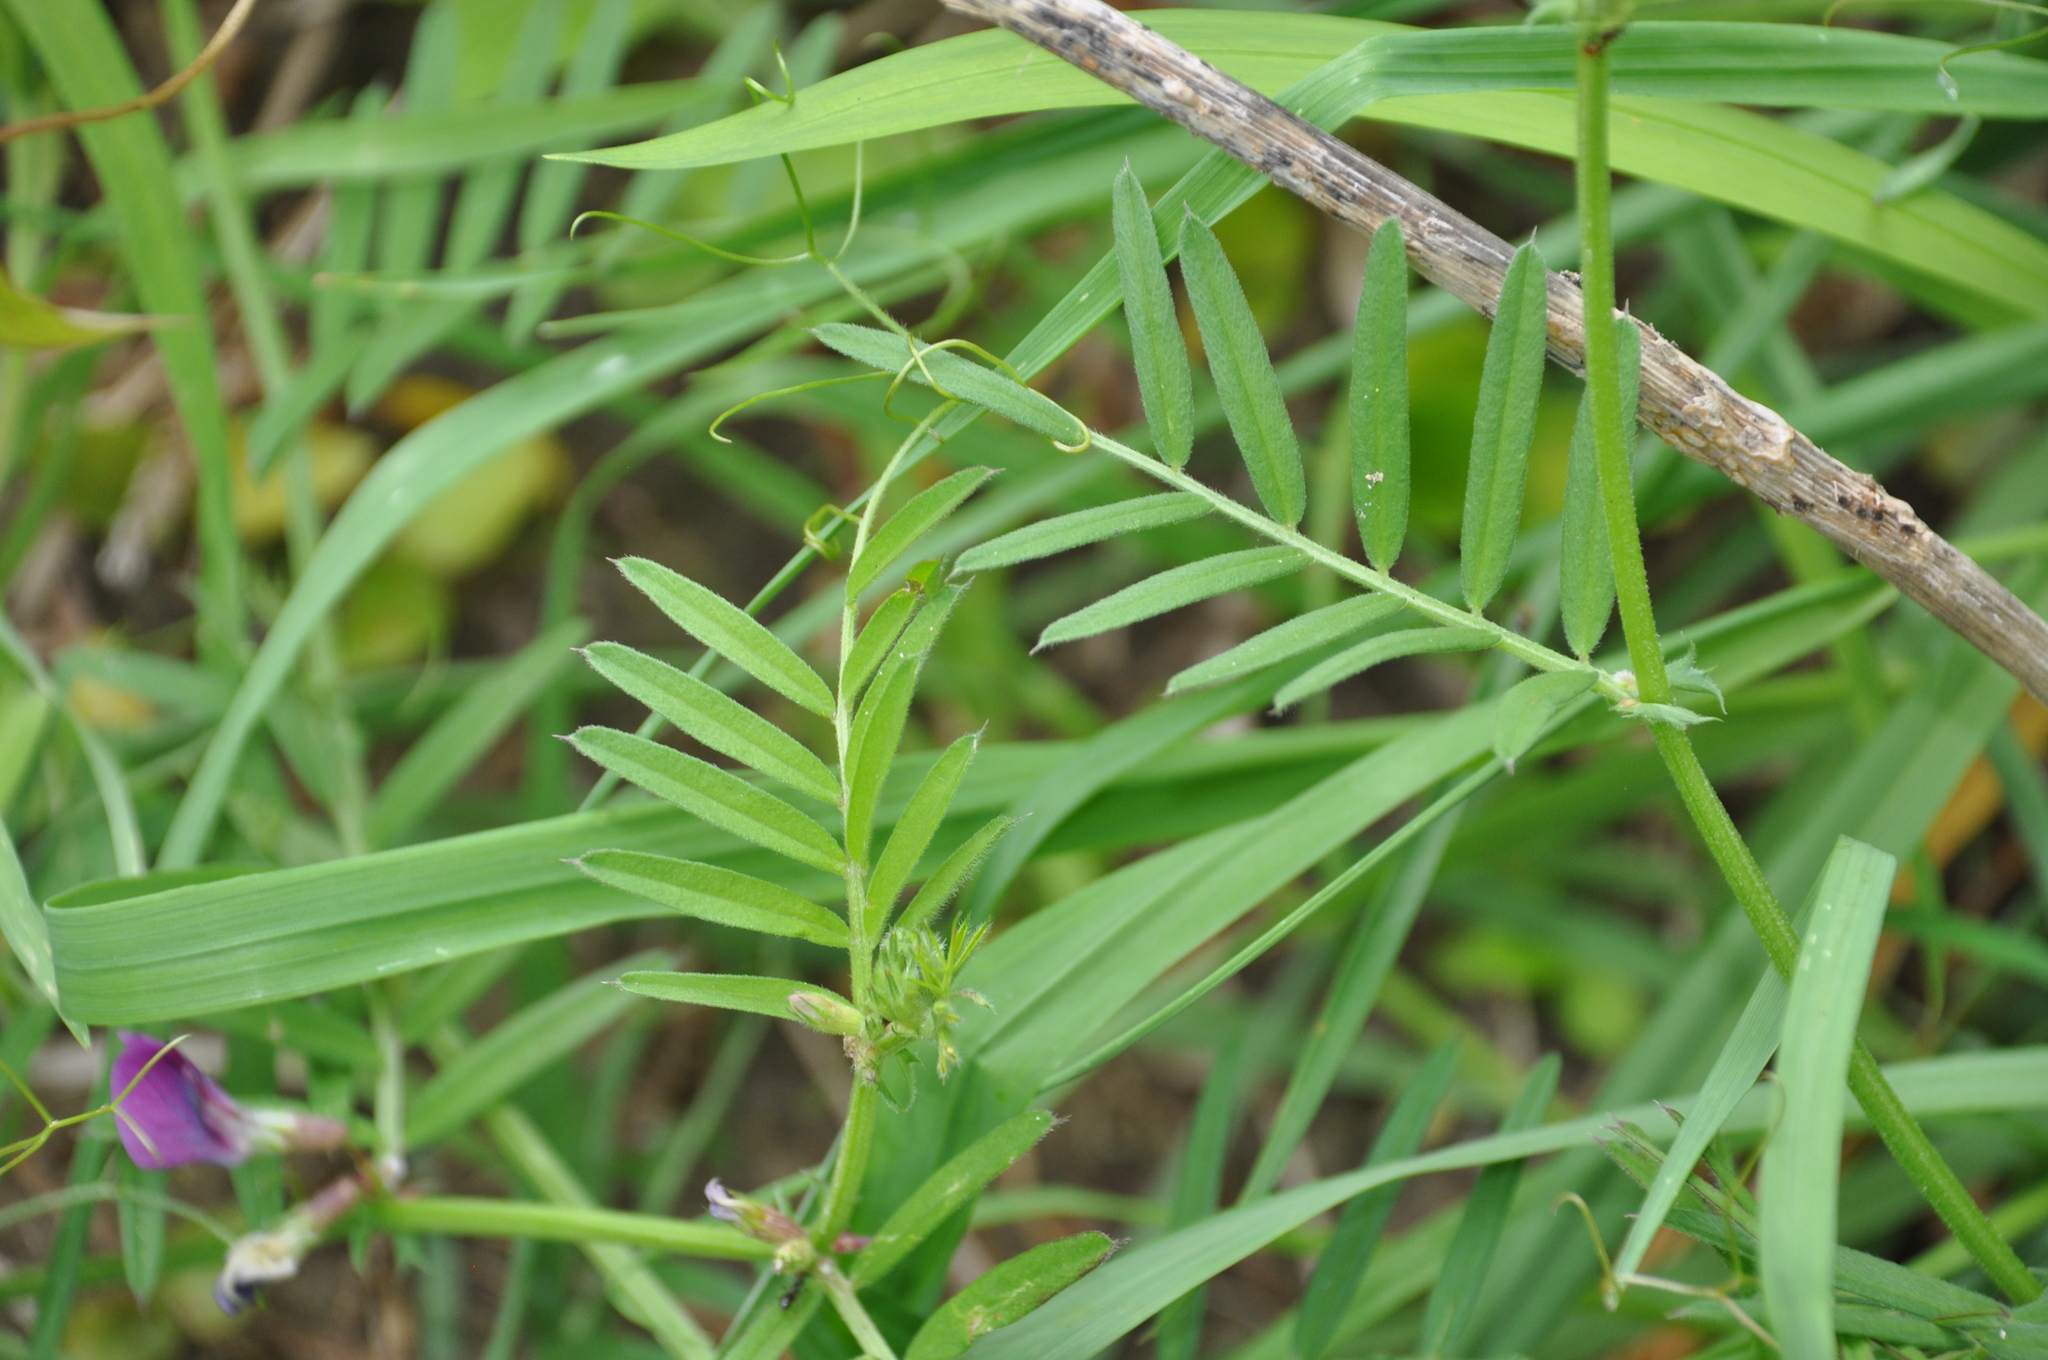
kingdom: Plantae
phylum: Tracheophyta
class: Magnoliopsida
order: Fabales
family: Fabaceae
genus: Vicia
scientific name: Vicia sativa
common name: Garden vetch
